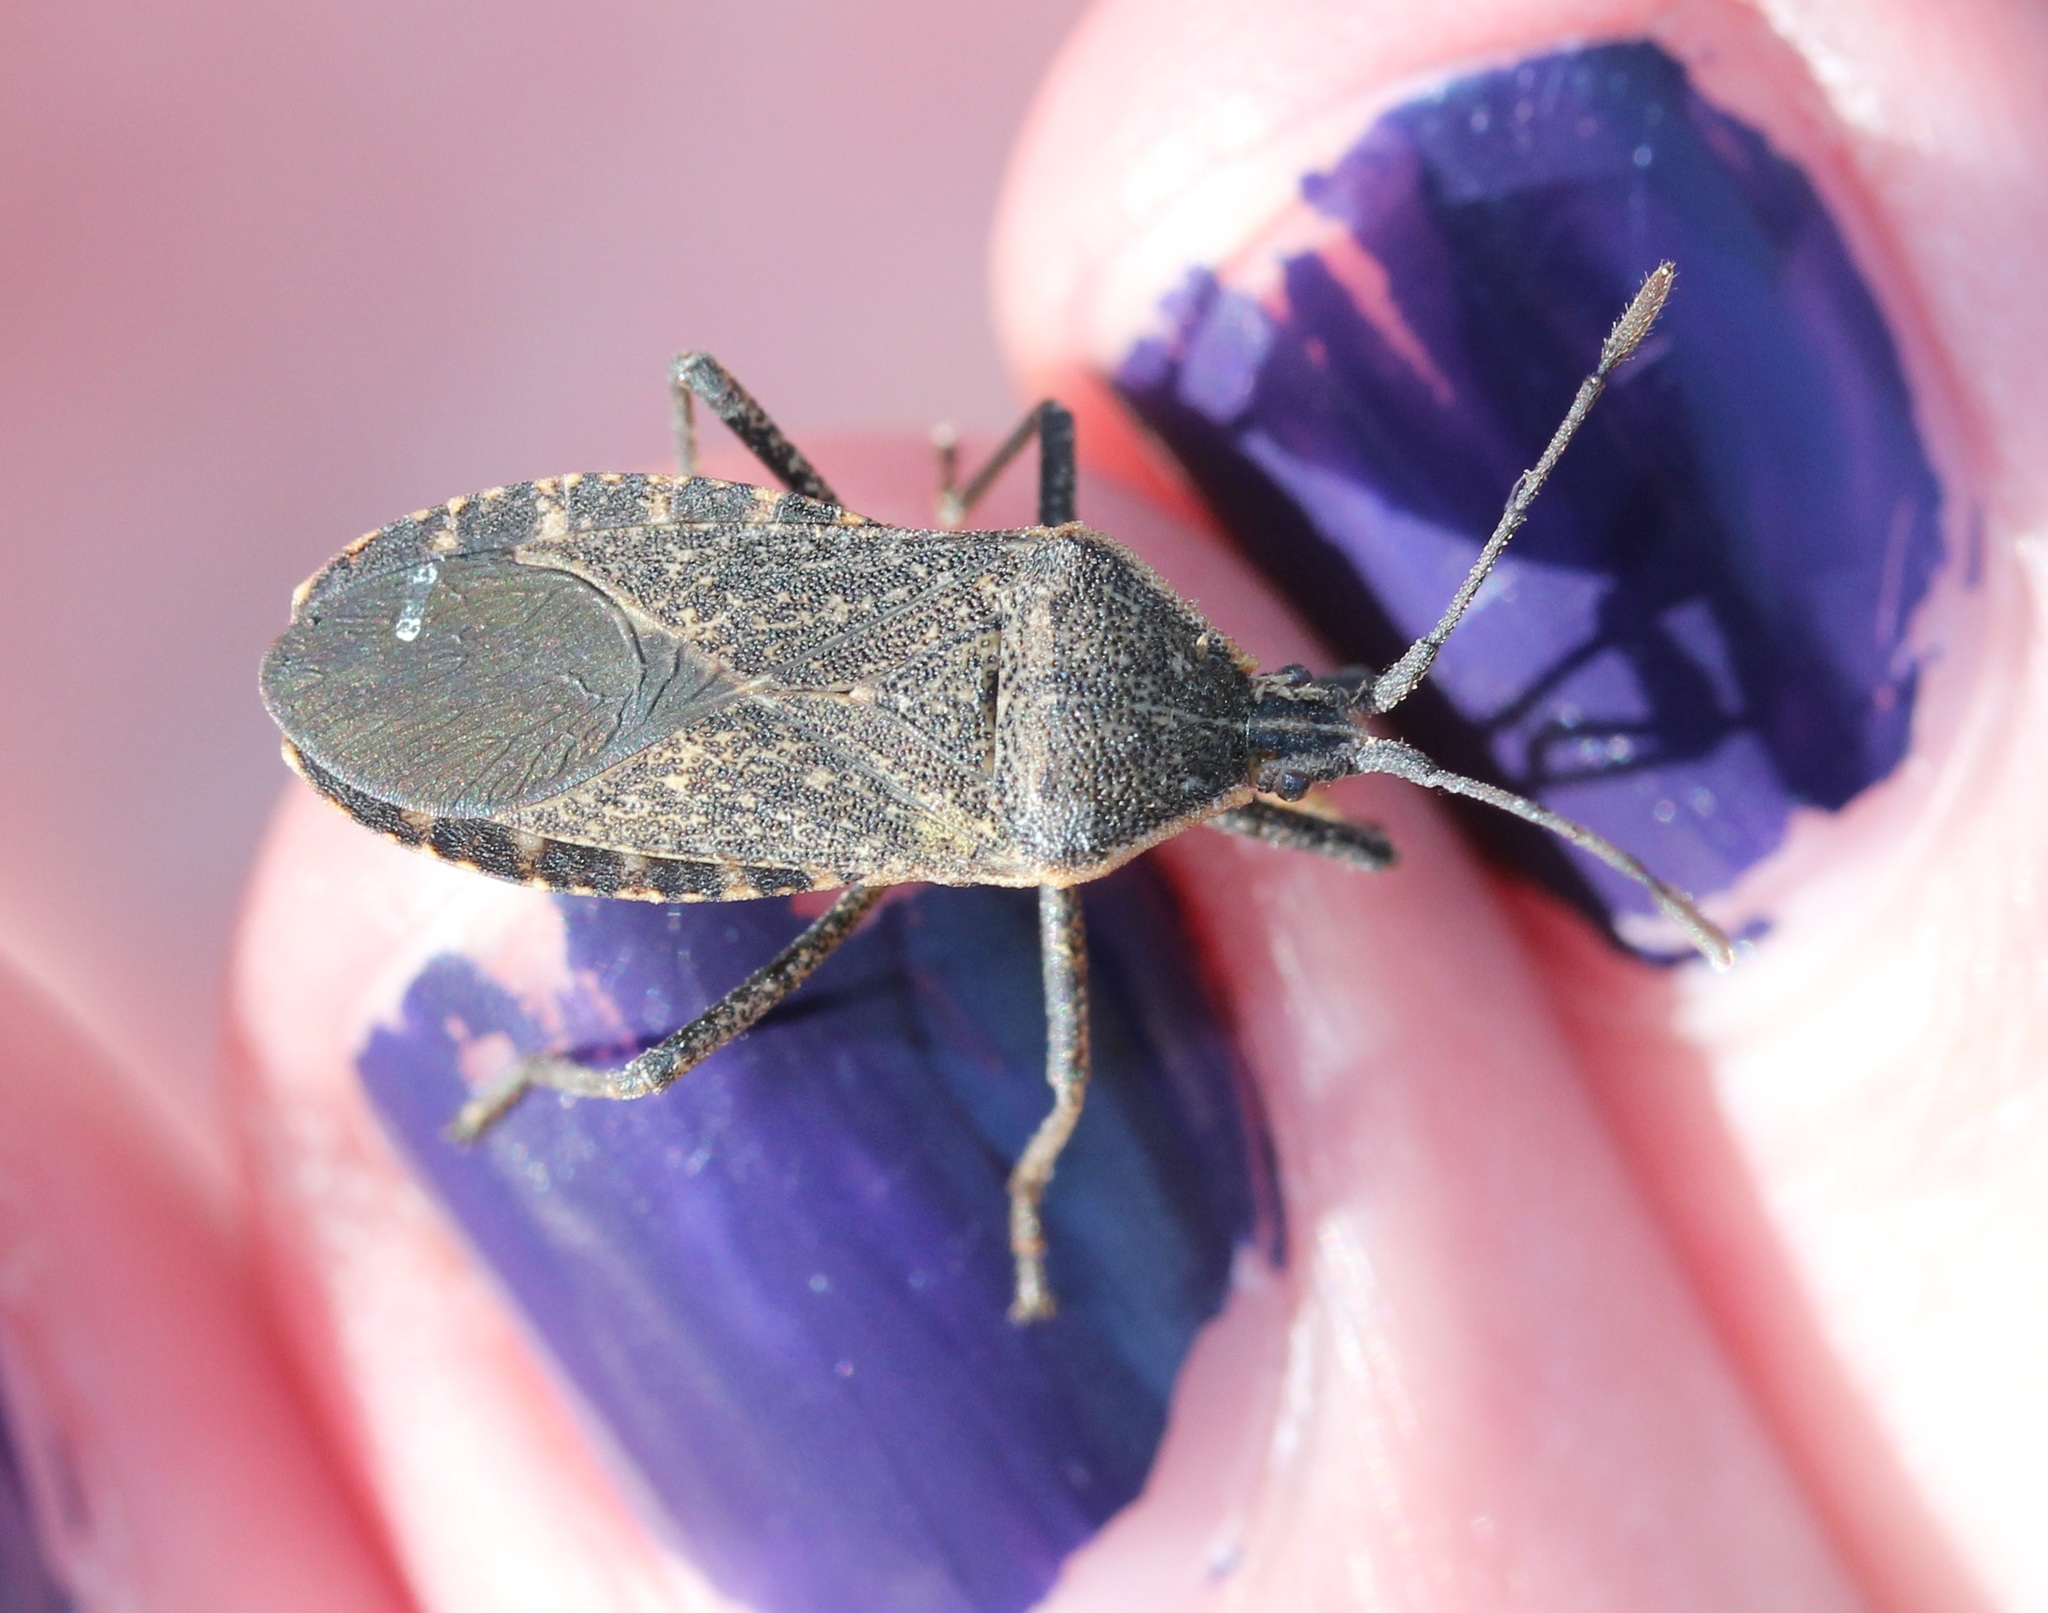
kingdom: Animalia
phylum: Arthropoda
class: Insecta
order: Hemiptera
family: Coreidae
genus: Anasa
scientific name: Anasa tristis
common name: Squash bug
